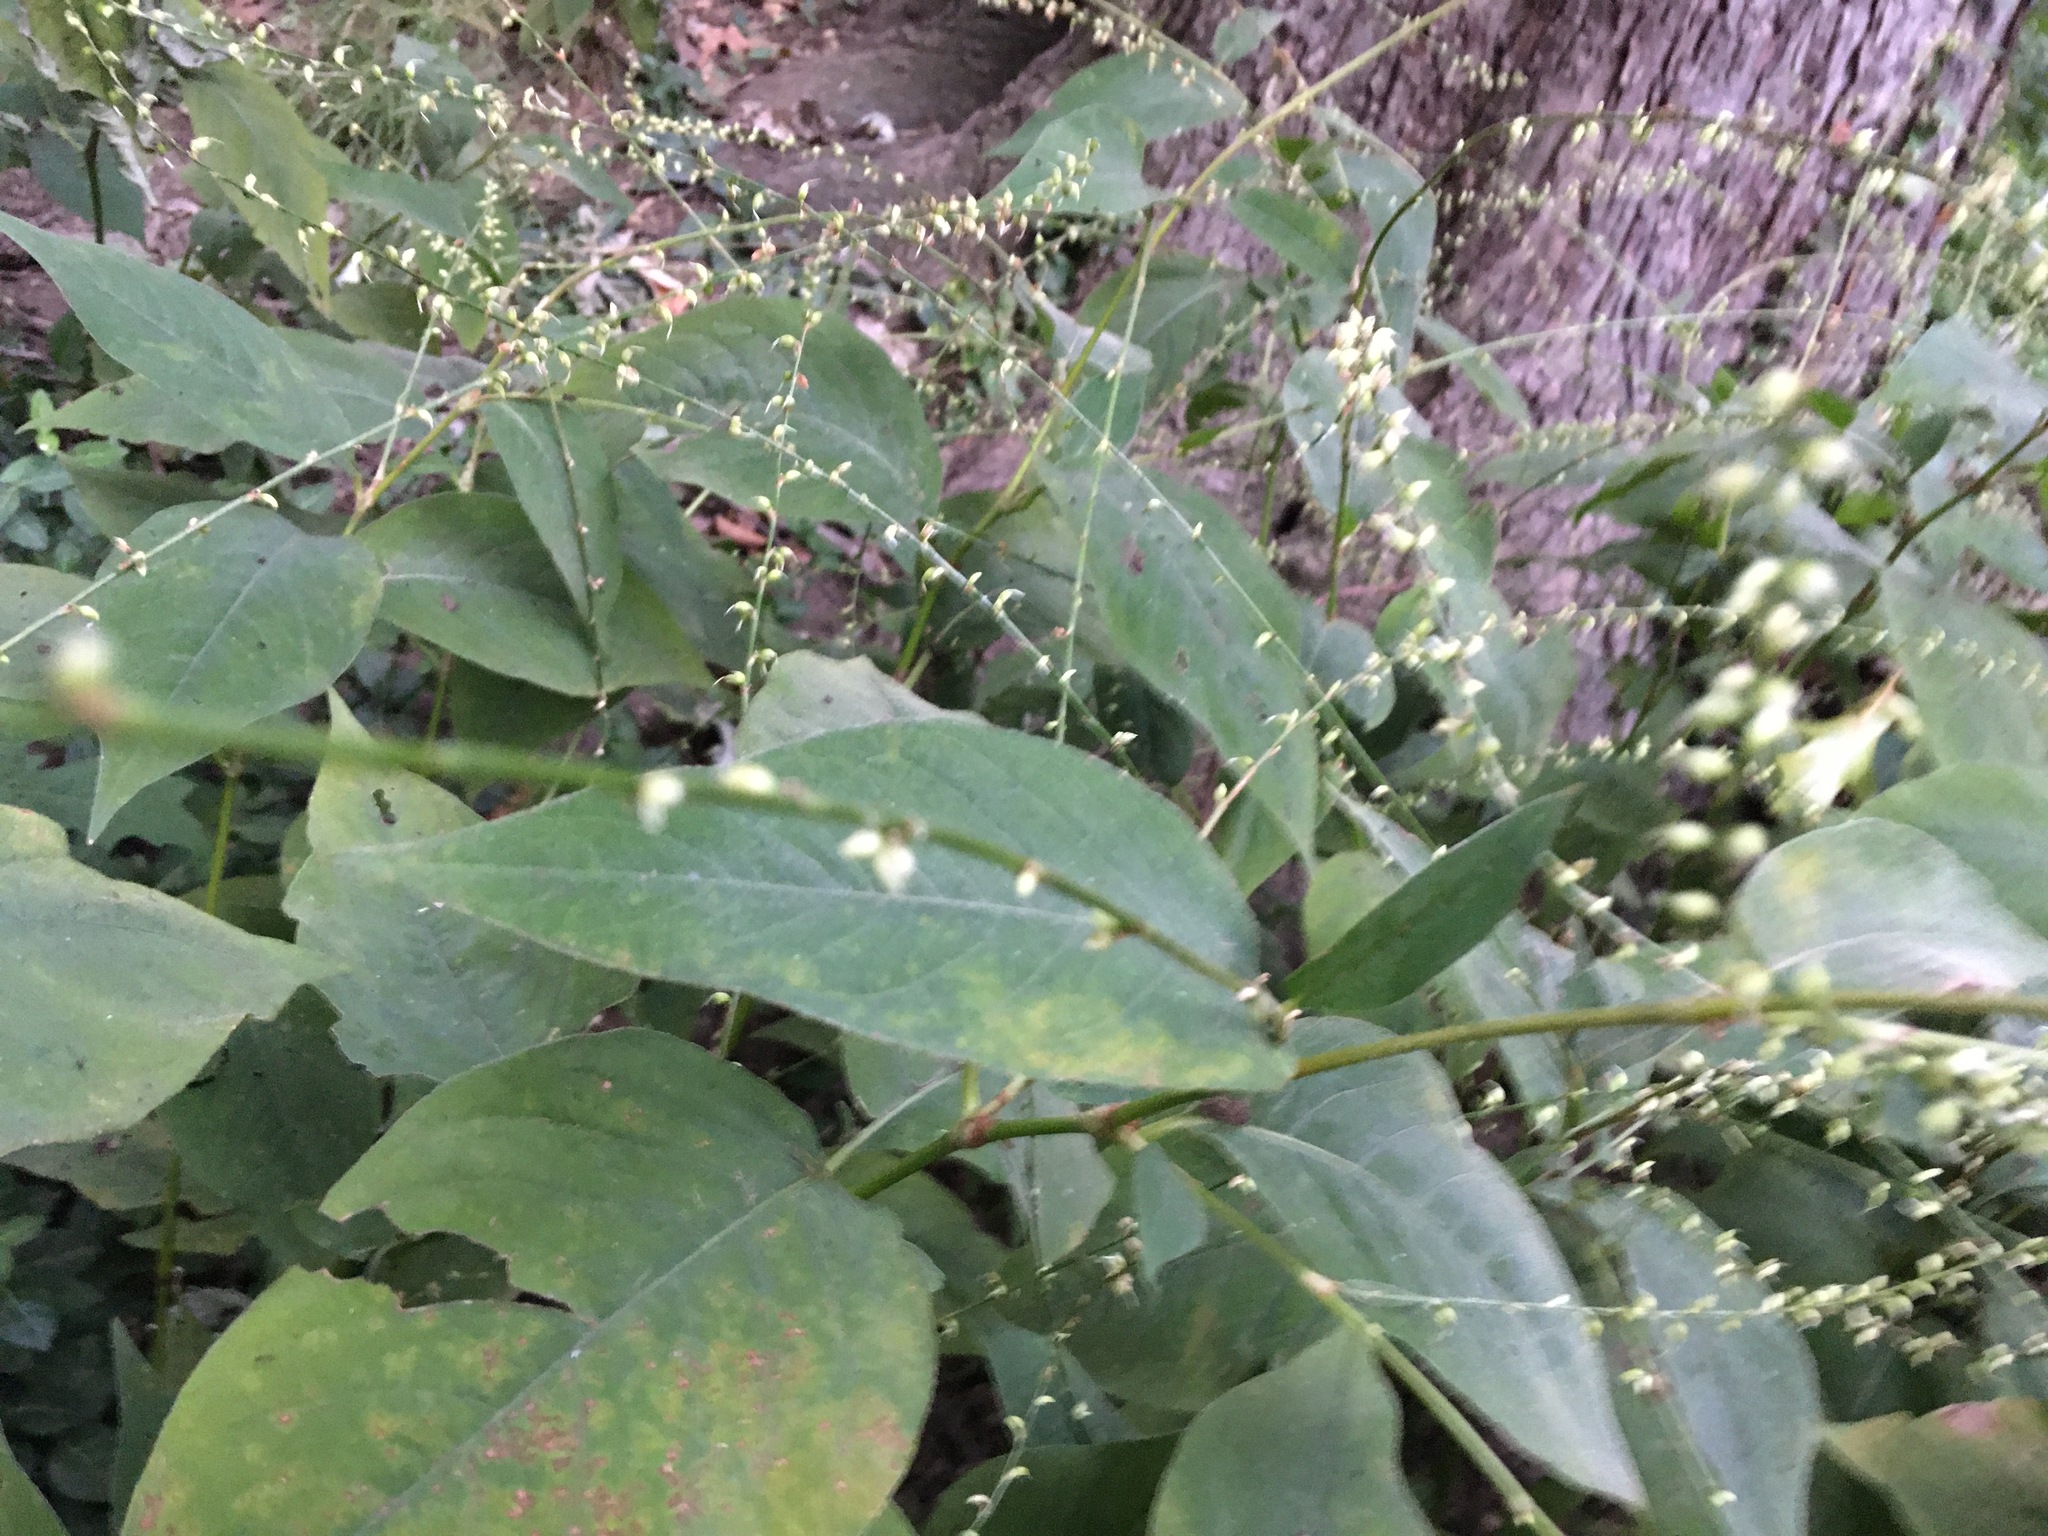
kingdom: Plantae
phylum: Tracheophyta
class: Magnoliopsida
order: Caryophyllales
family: Polygonaceae
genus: Persicaria
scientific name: Persicaria virginiana
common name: Jumpseed
